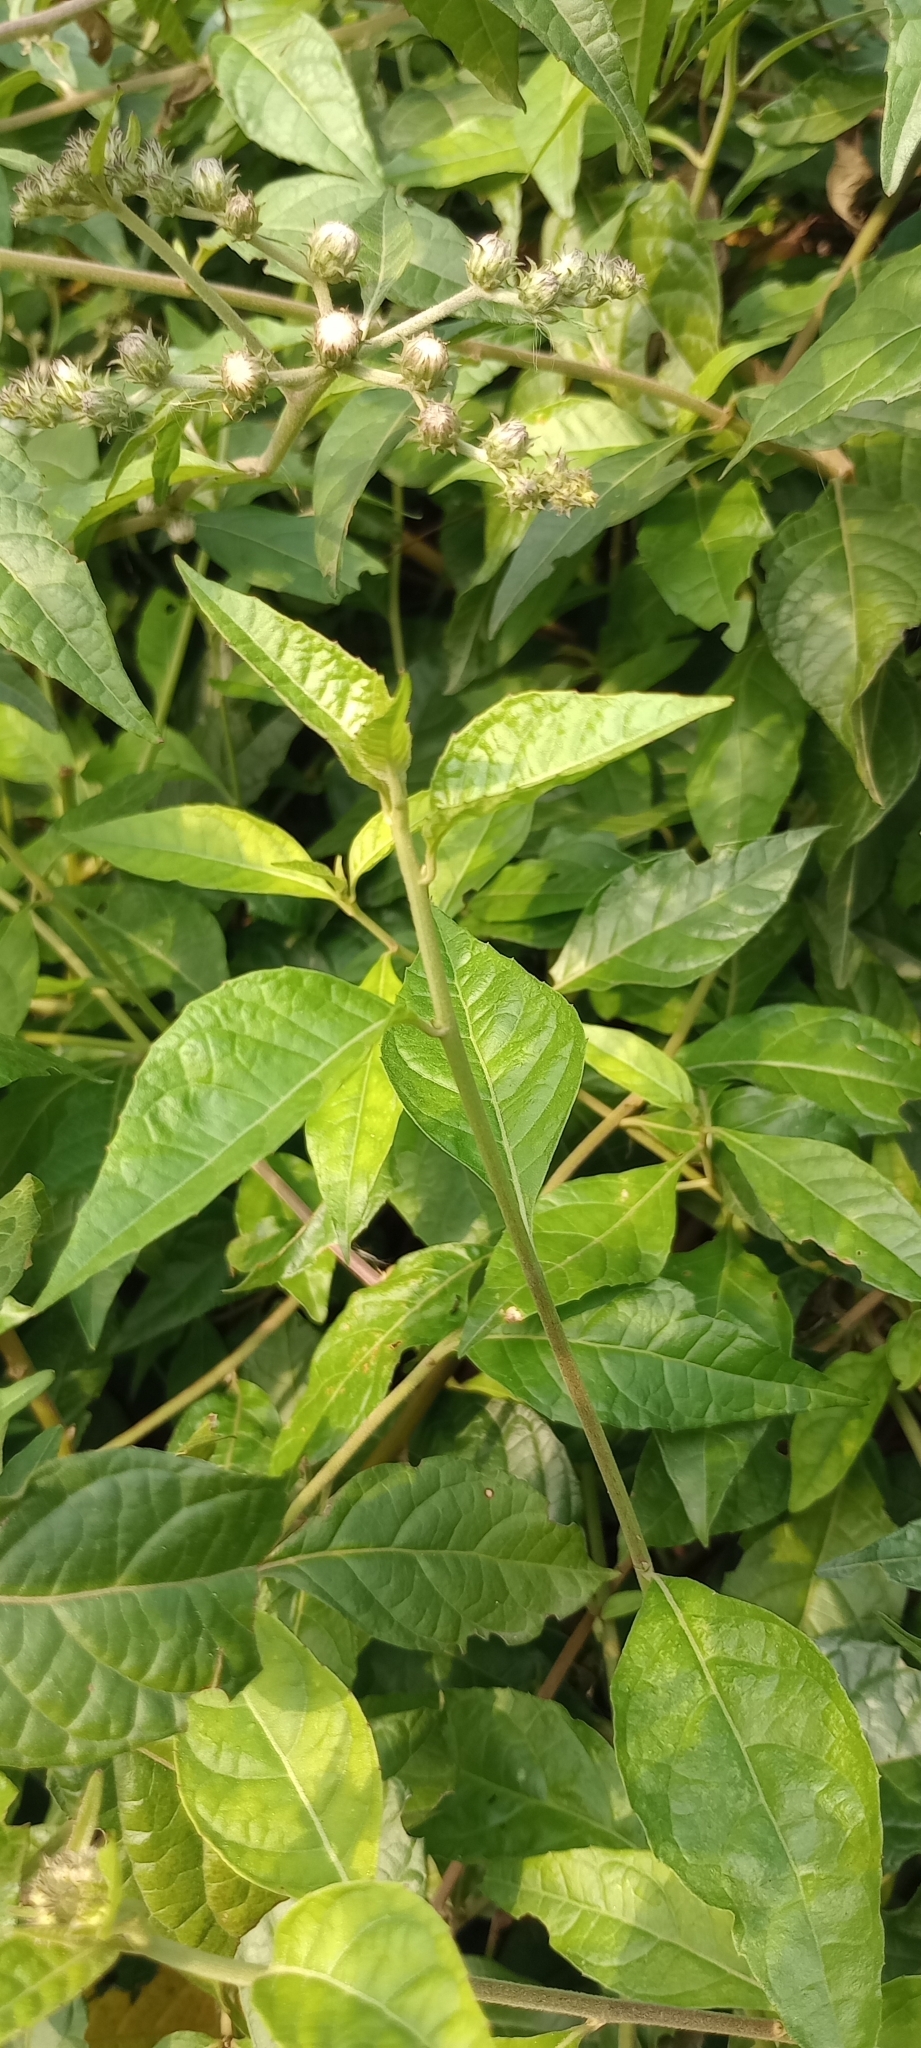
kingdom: Plantae
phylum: Tracheophyta
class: Magnoliopsida
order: Asterales
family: Asteraceae
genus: Cyrtocymura
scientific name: Cyrtocymura scorpioides
